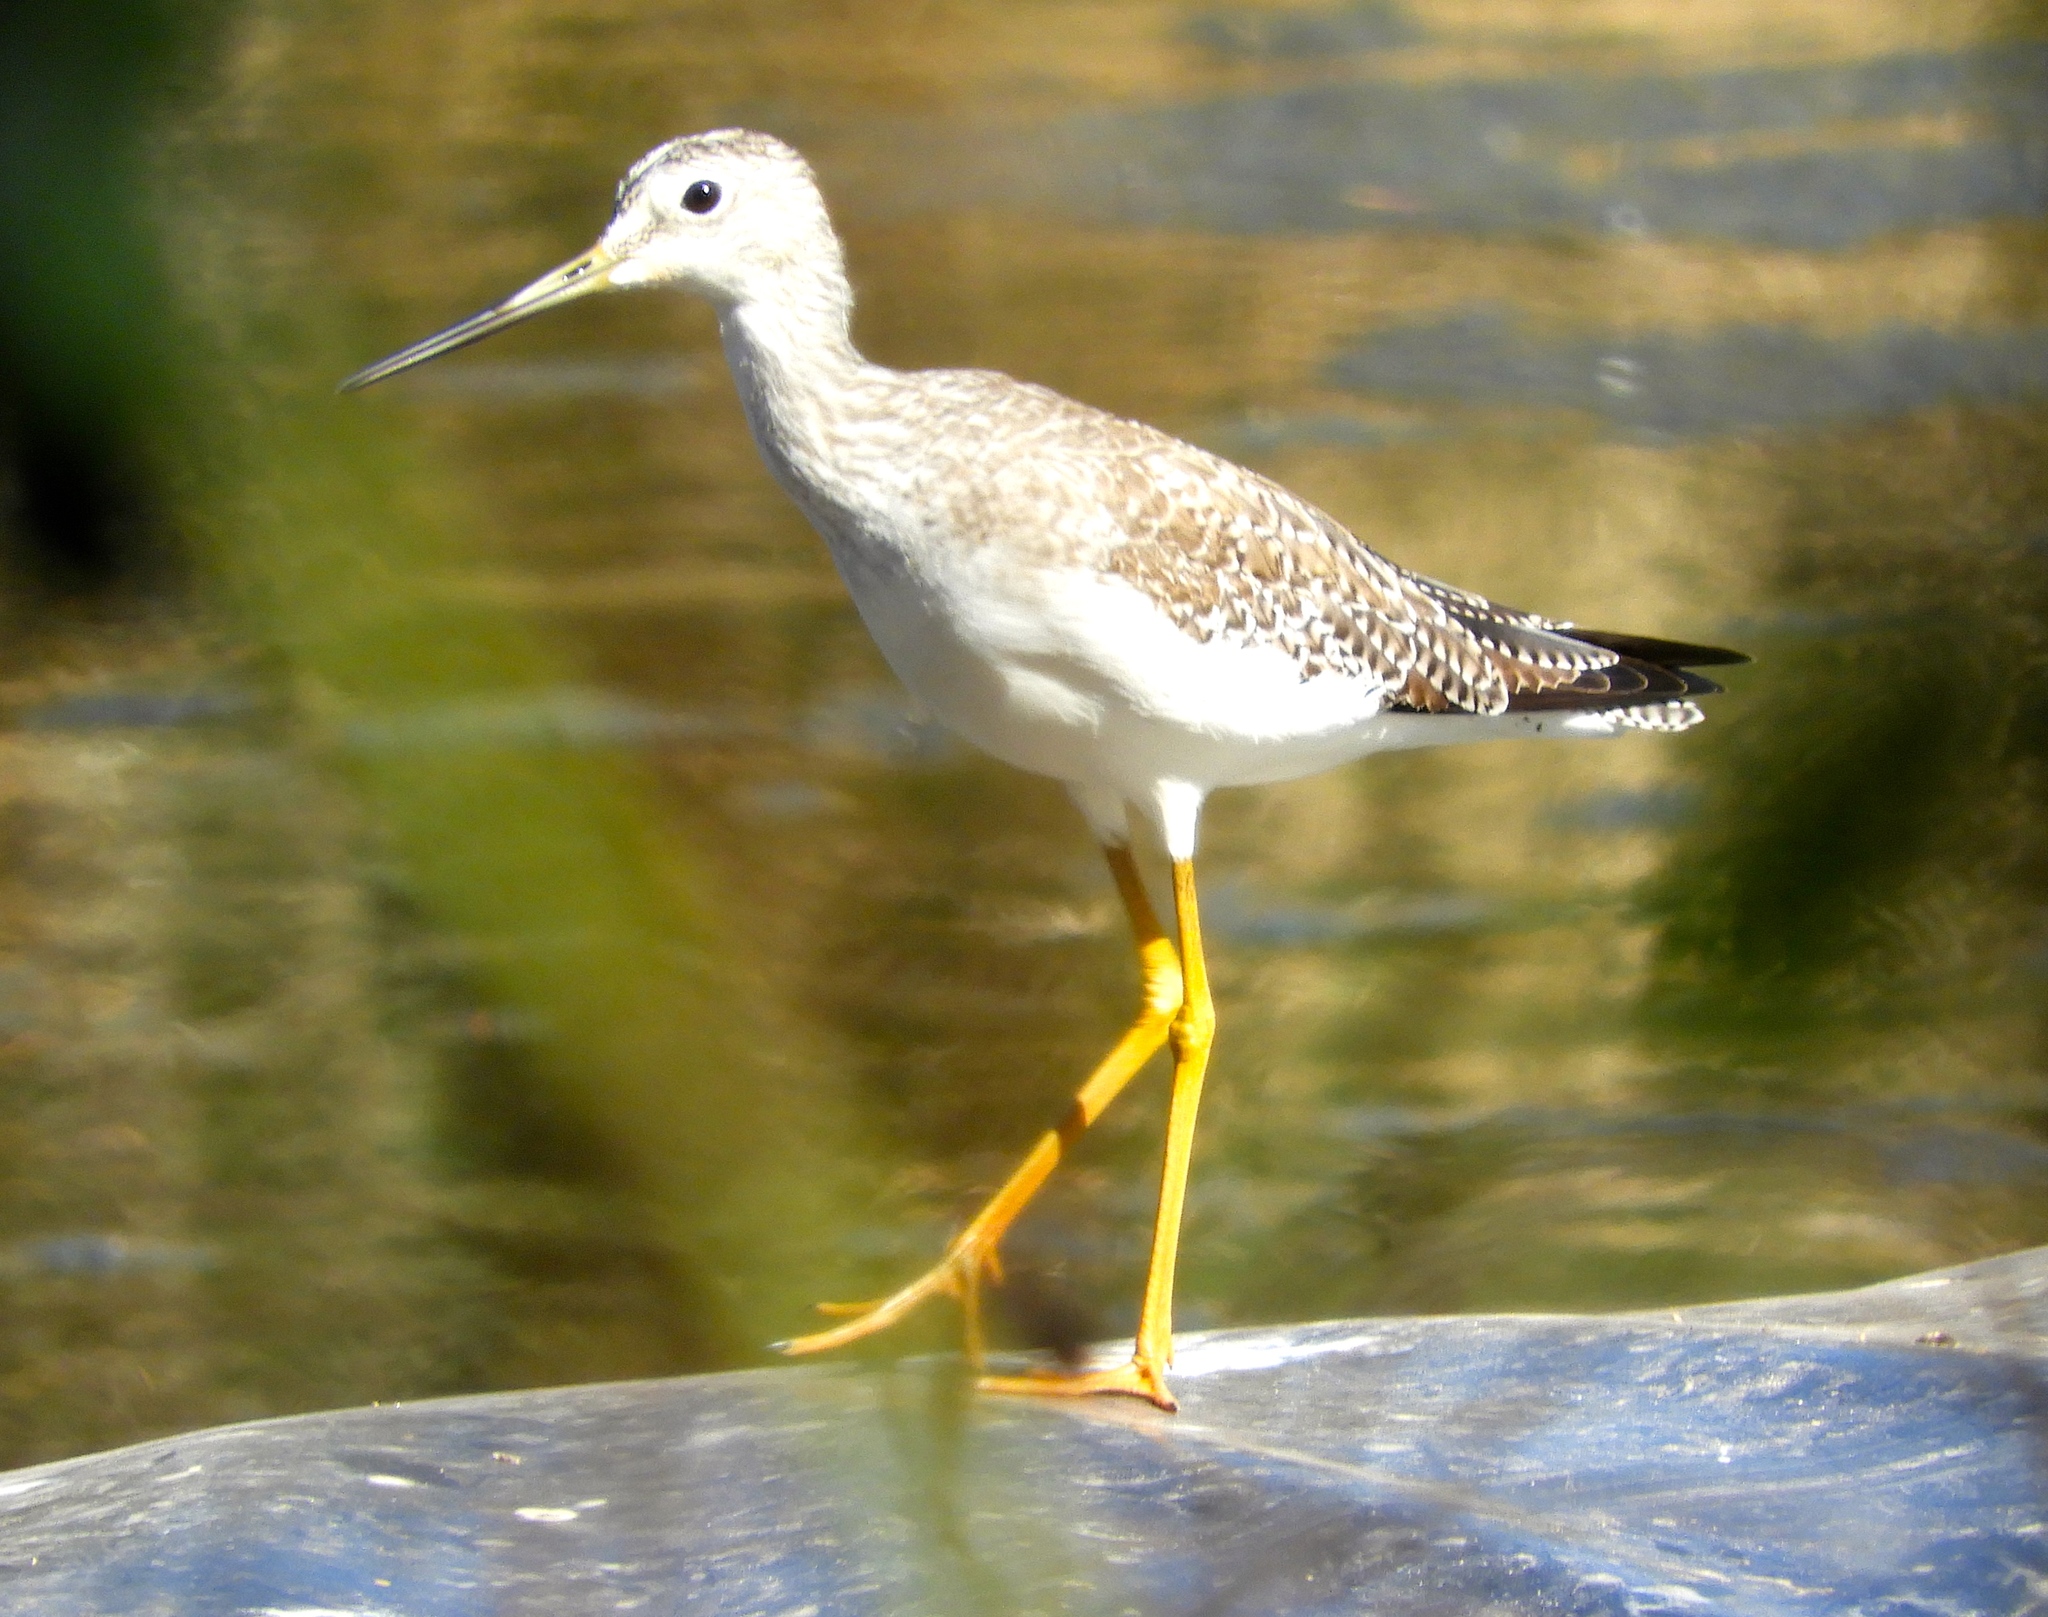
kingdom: Animalia
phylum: Chordata
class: Aves
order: Charadriiformes
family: Scolopacidae
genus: Tringa
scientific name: Tringa melanoleuca
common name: Greater yellowlegs
